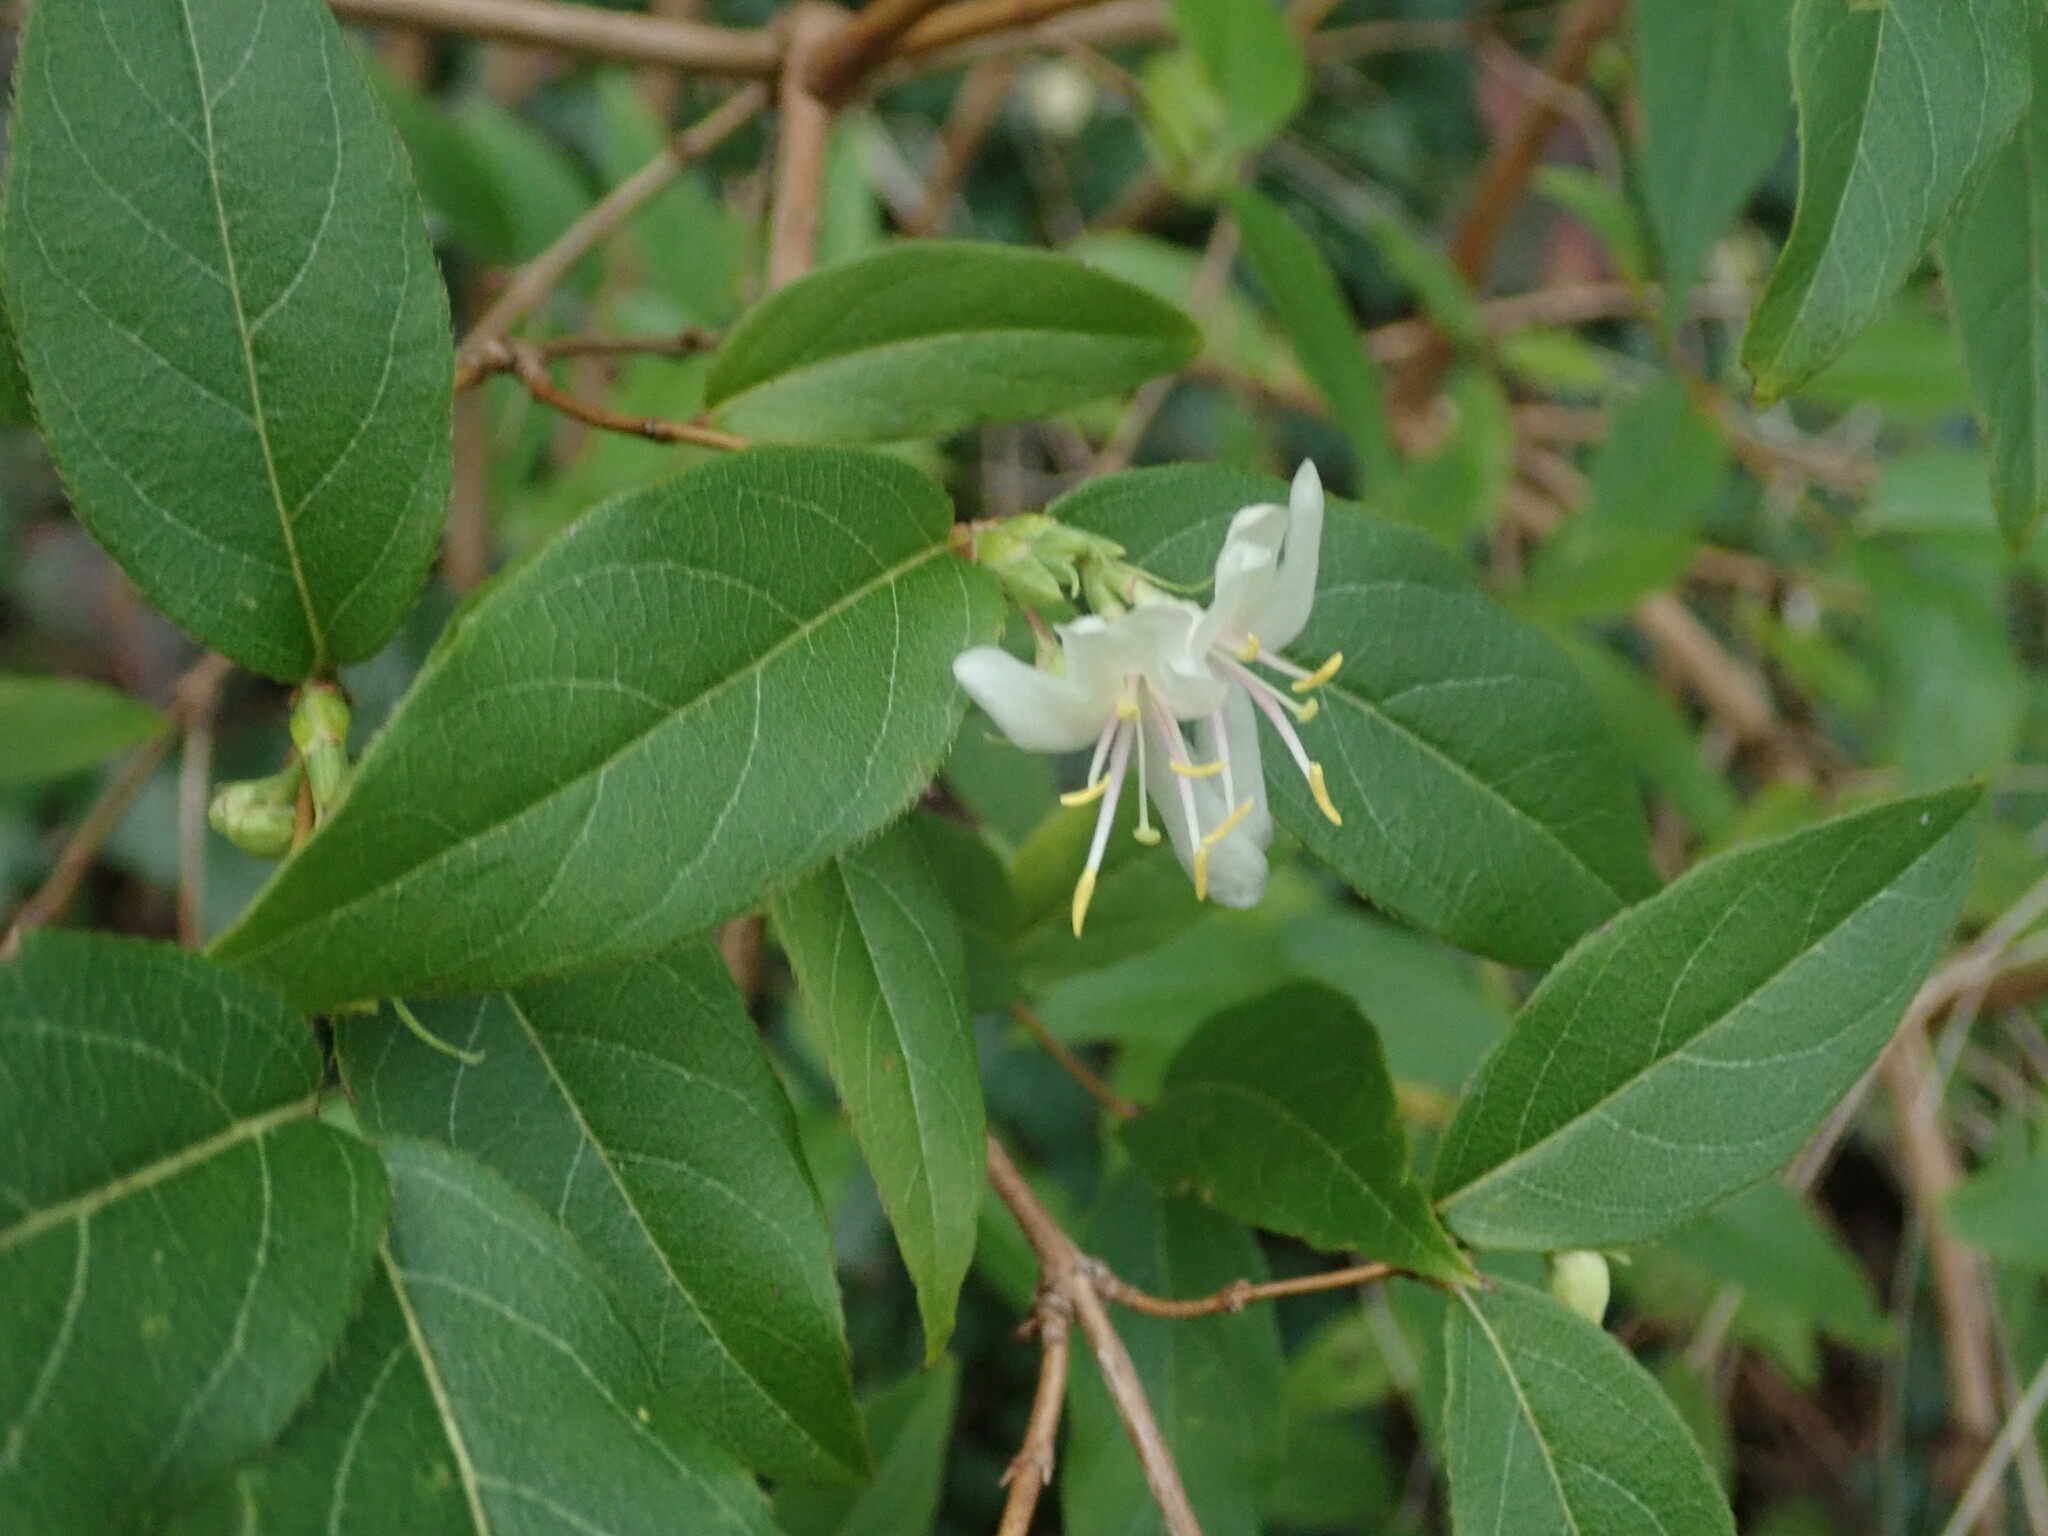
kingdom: Plantae
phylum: Tracheophyta
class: Magnoliopsida
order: Dipsacales
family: Caprifoliaceae
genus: Lonicera
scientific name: Lonicera fragrantissima
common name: Fragrant honeysuckle
